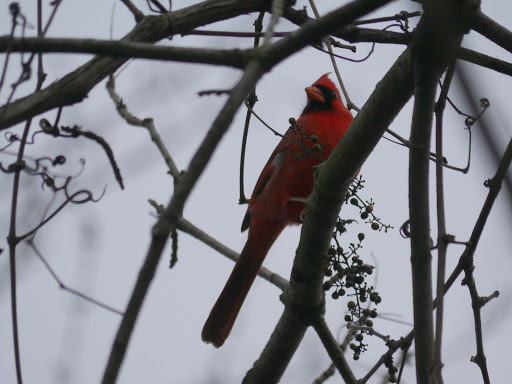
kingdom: Animalia
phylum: Chordata
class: Aves
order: Passeriformes
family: Cardinalidae
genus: Cardinalis
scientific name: Cardinalis cardinalis
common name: Northern cardinal
